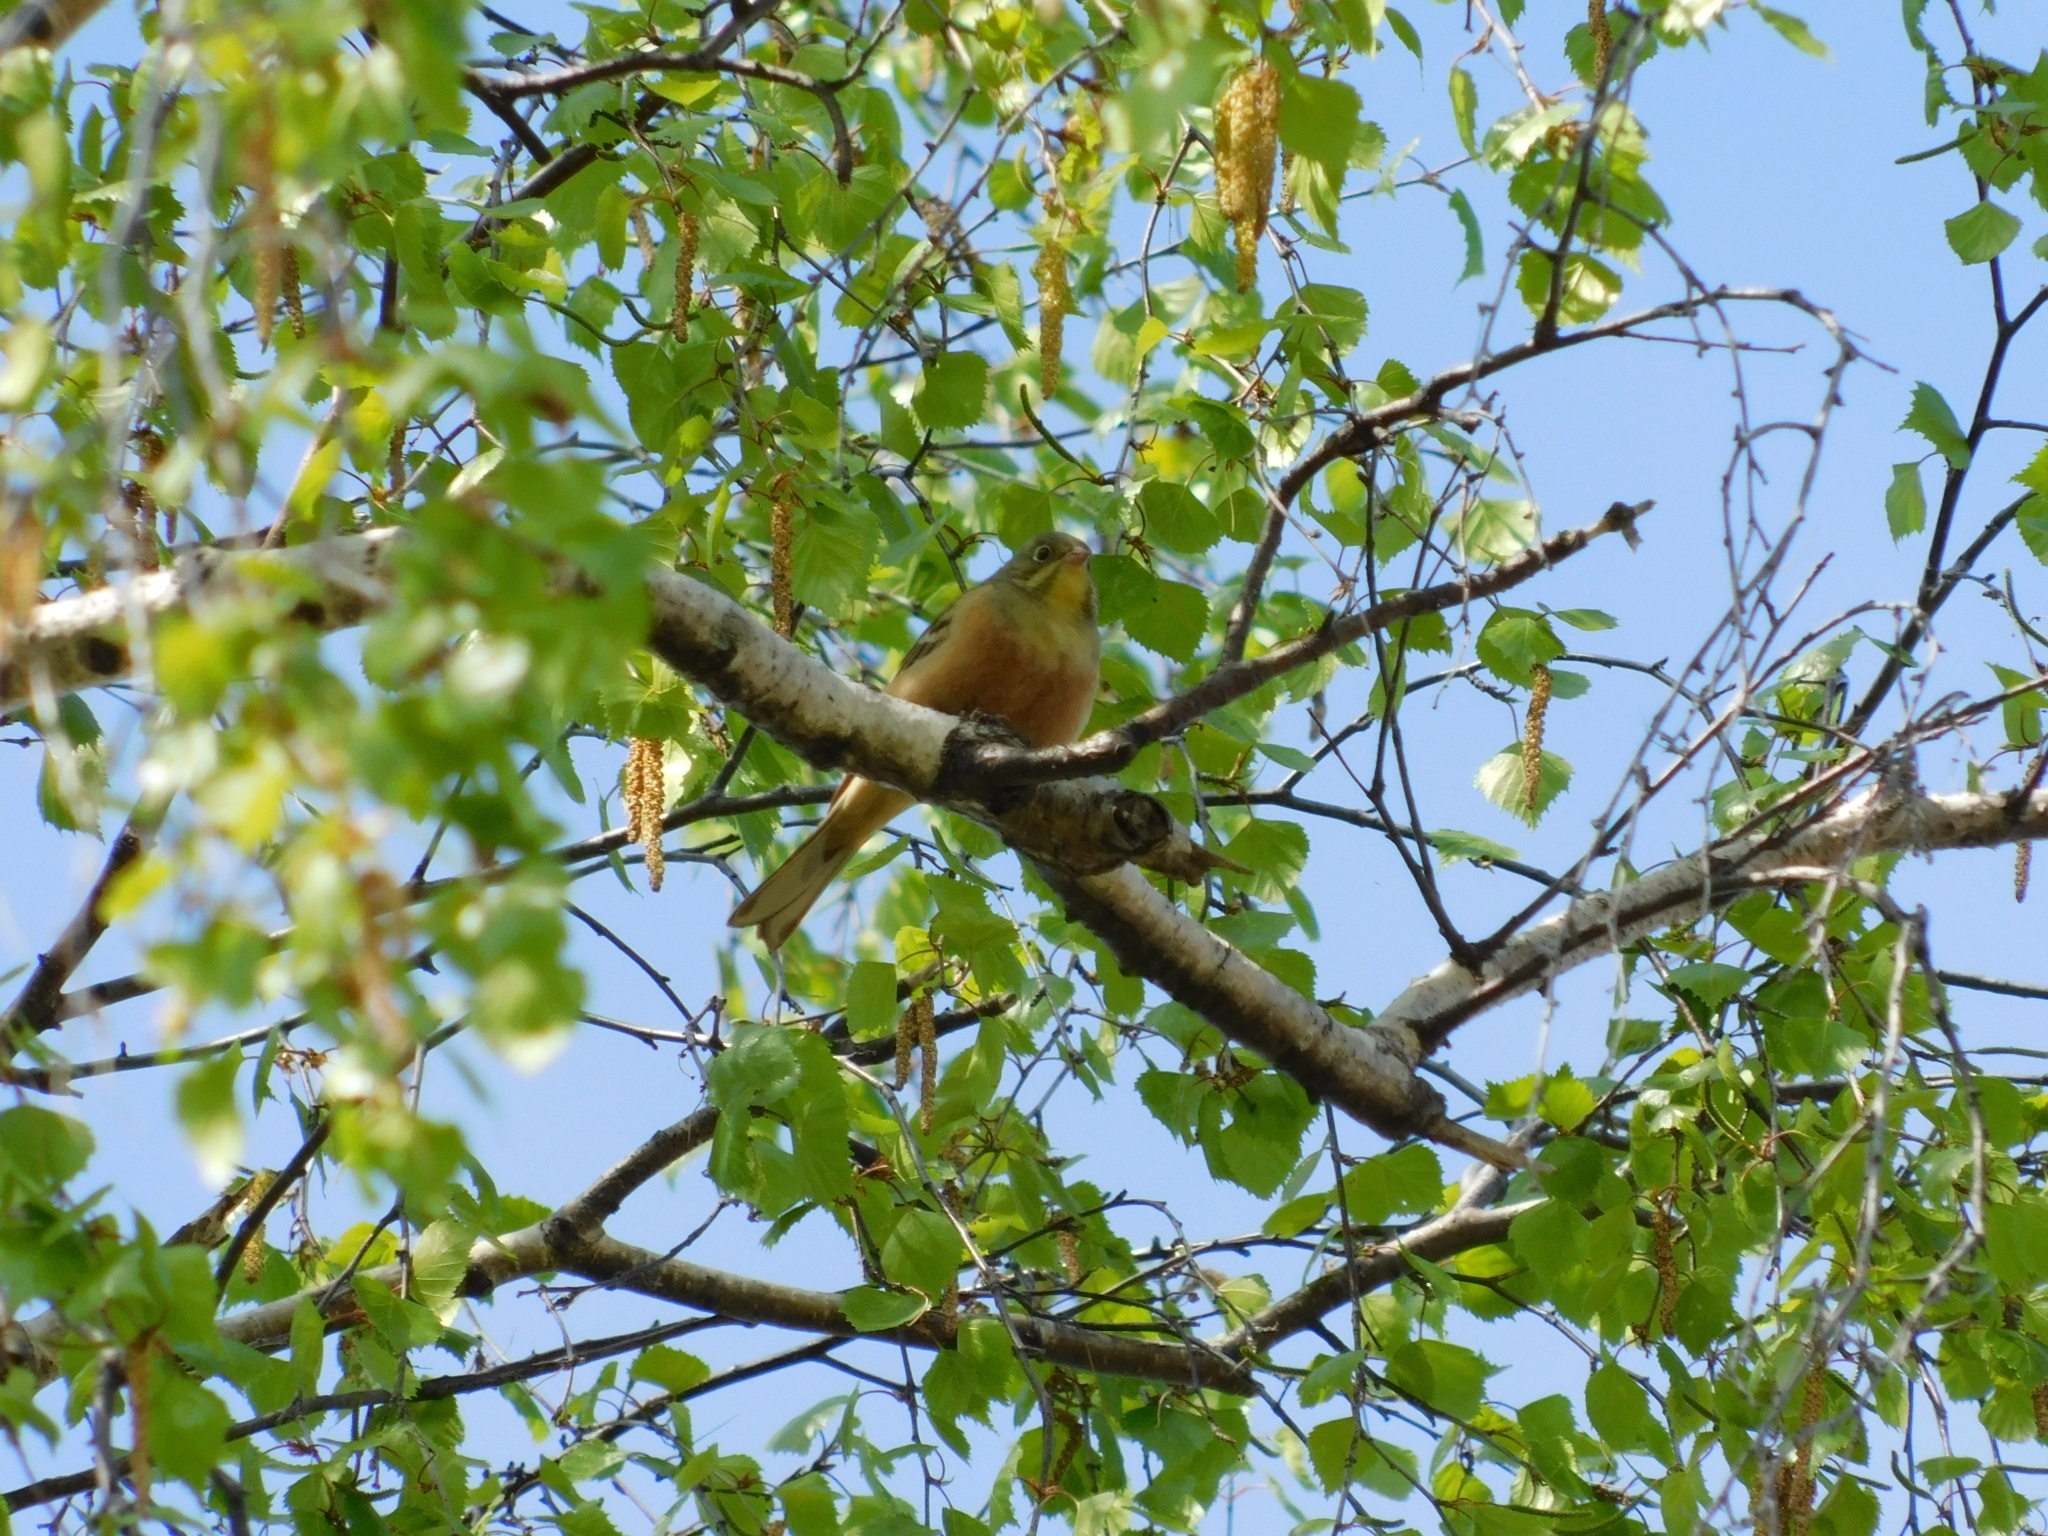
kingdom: Animalia
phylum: Chordata
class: Aves
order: Passeriformes
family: Emberizidae
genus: Emberiza
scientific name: Emberiza hortulana
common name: Ortolan bunting
